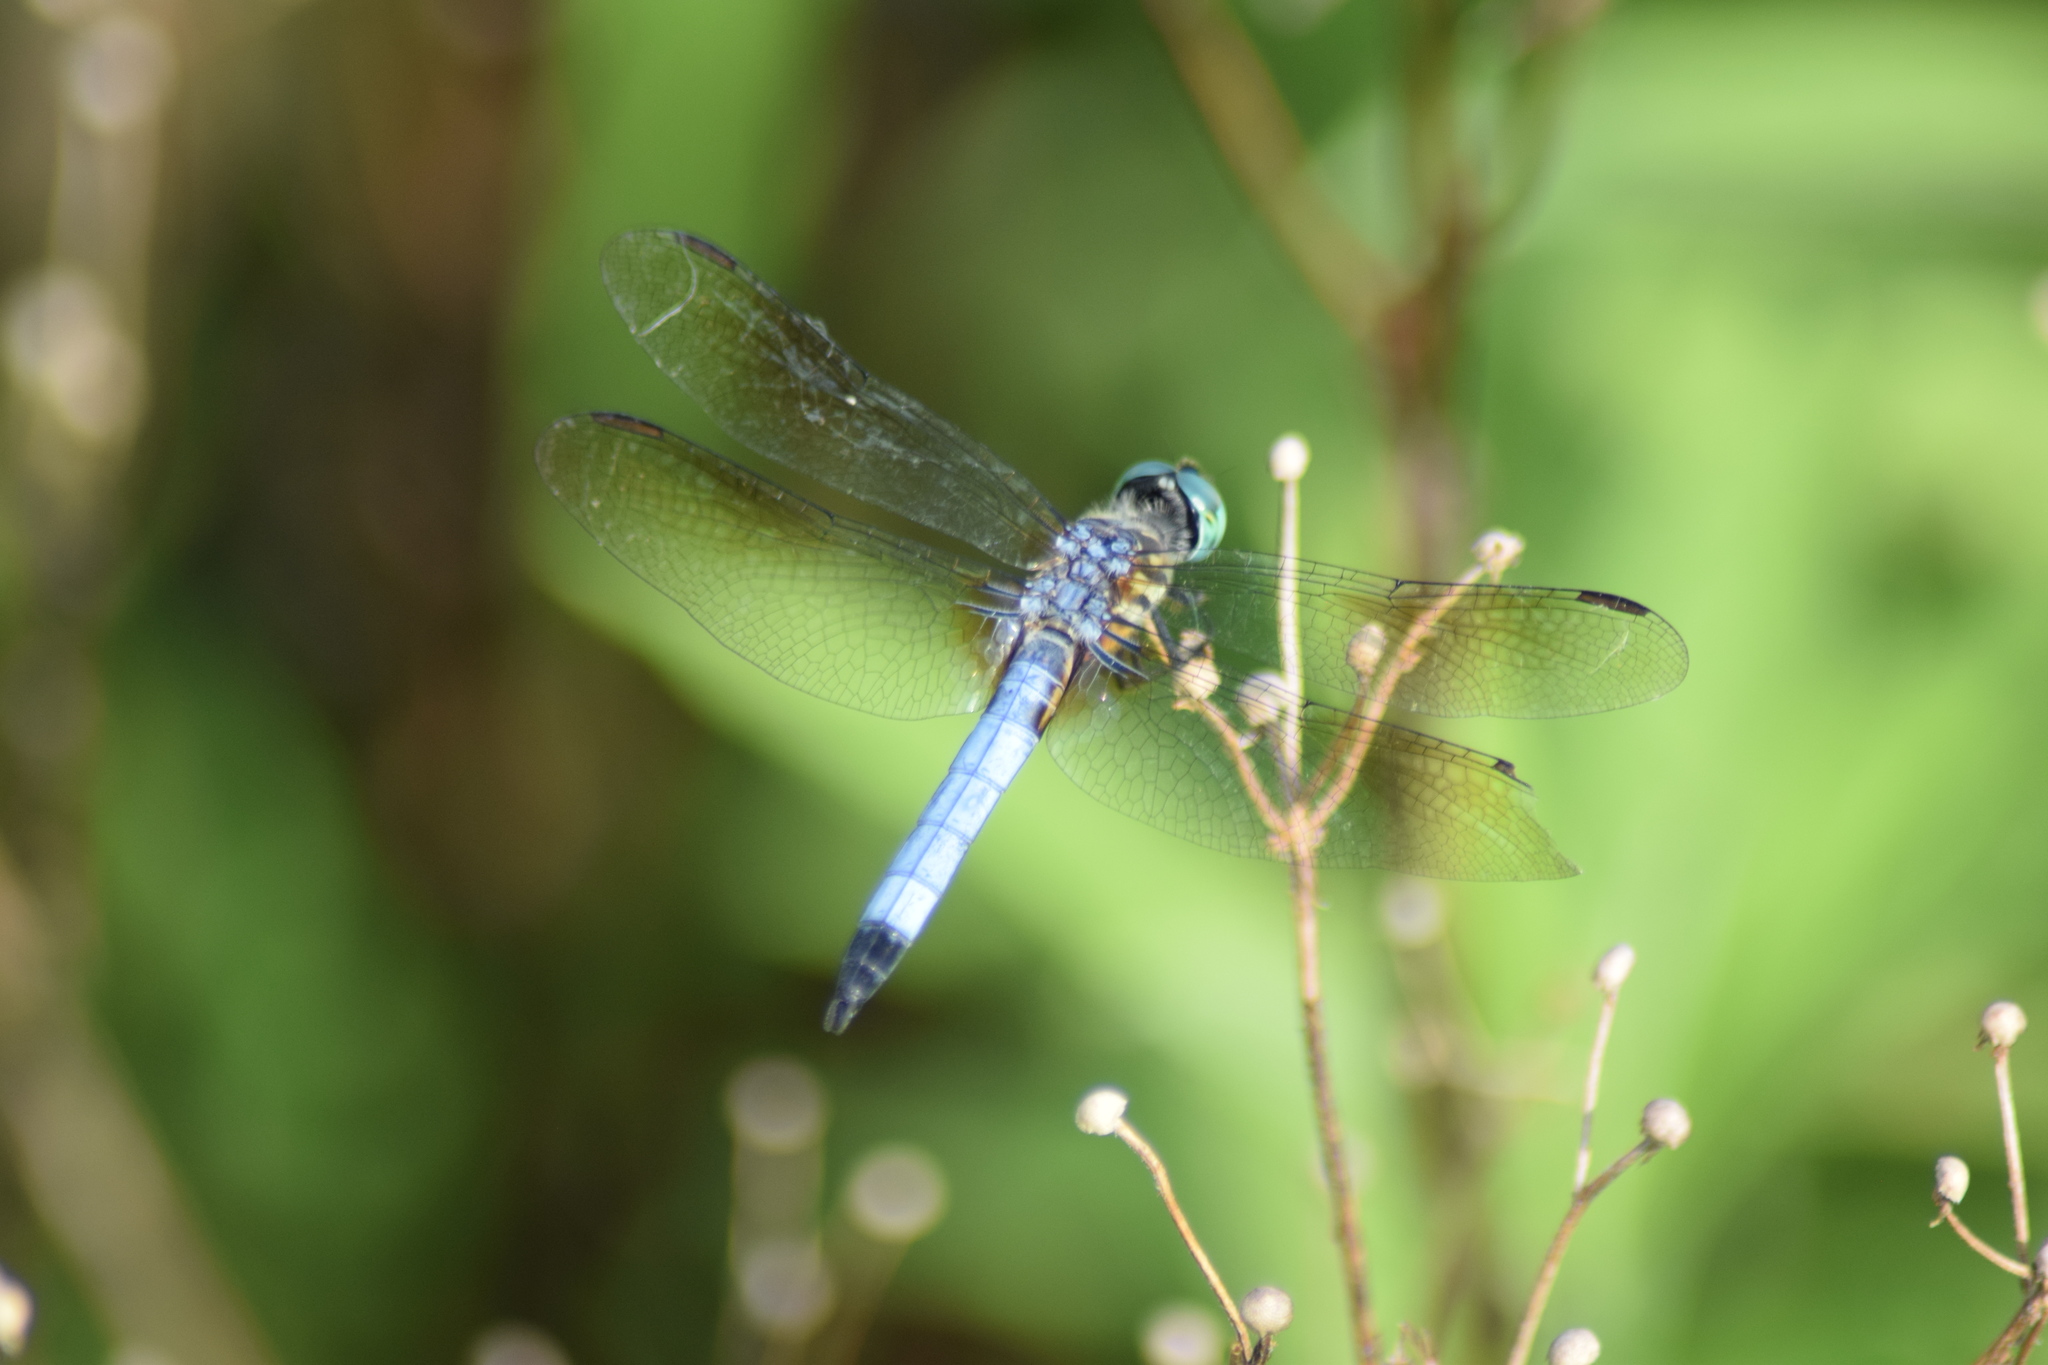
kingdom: Animalia
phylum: Arthropoda
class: Insecta
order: Odonata
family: Libellulidae
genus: Pachydiplax
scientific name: Pachydiplax longipennis
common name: Blue dasher
